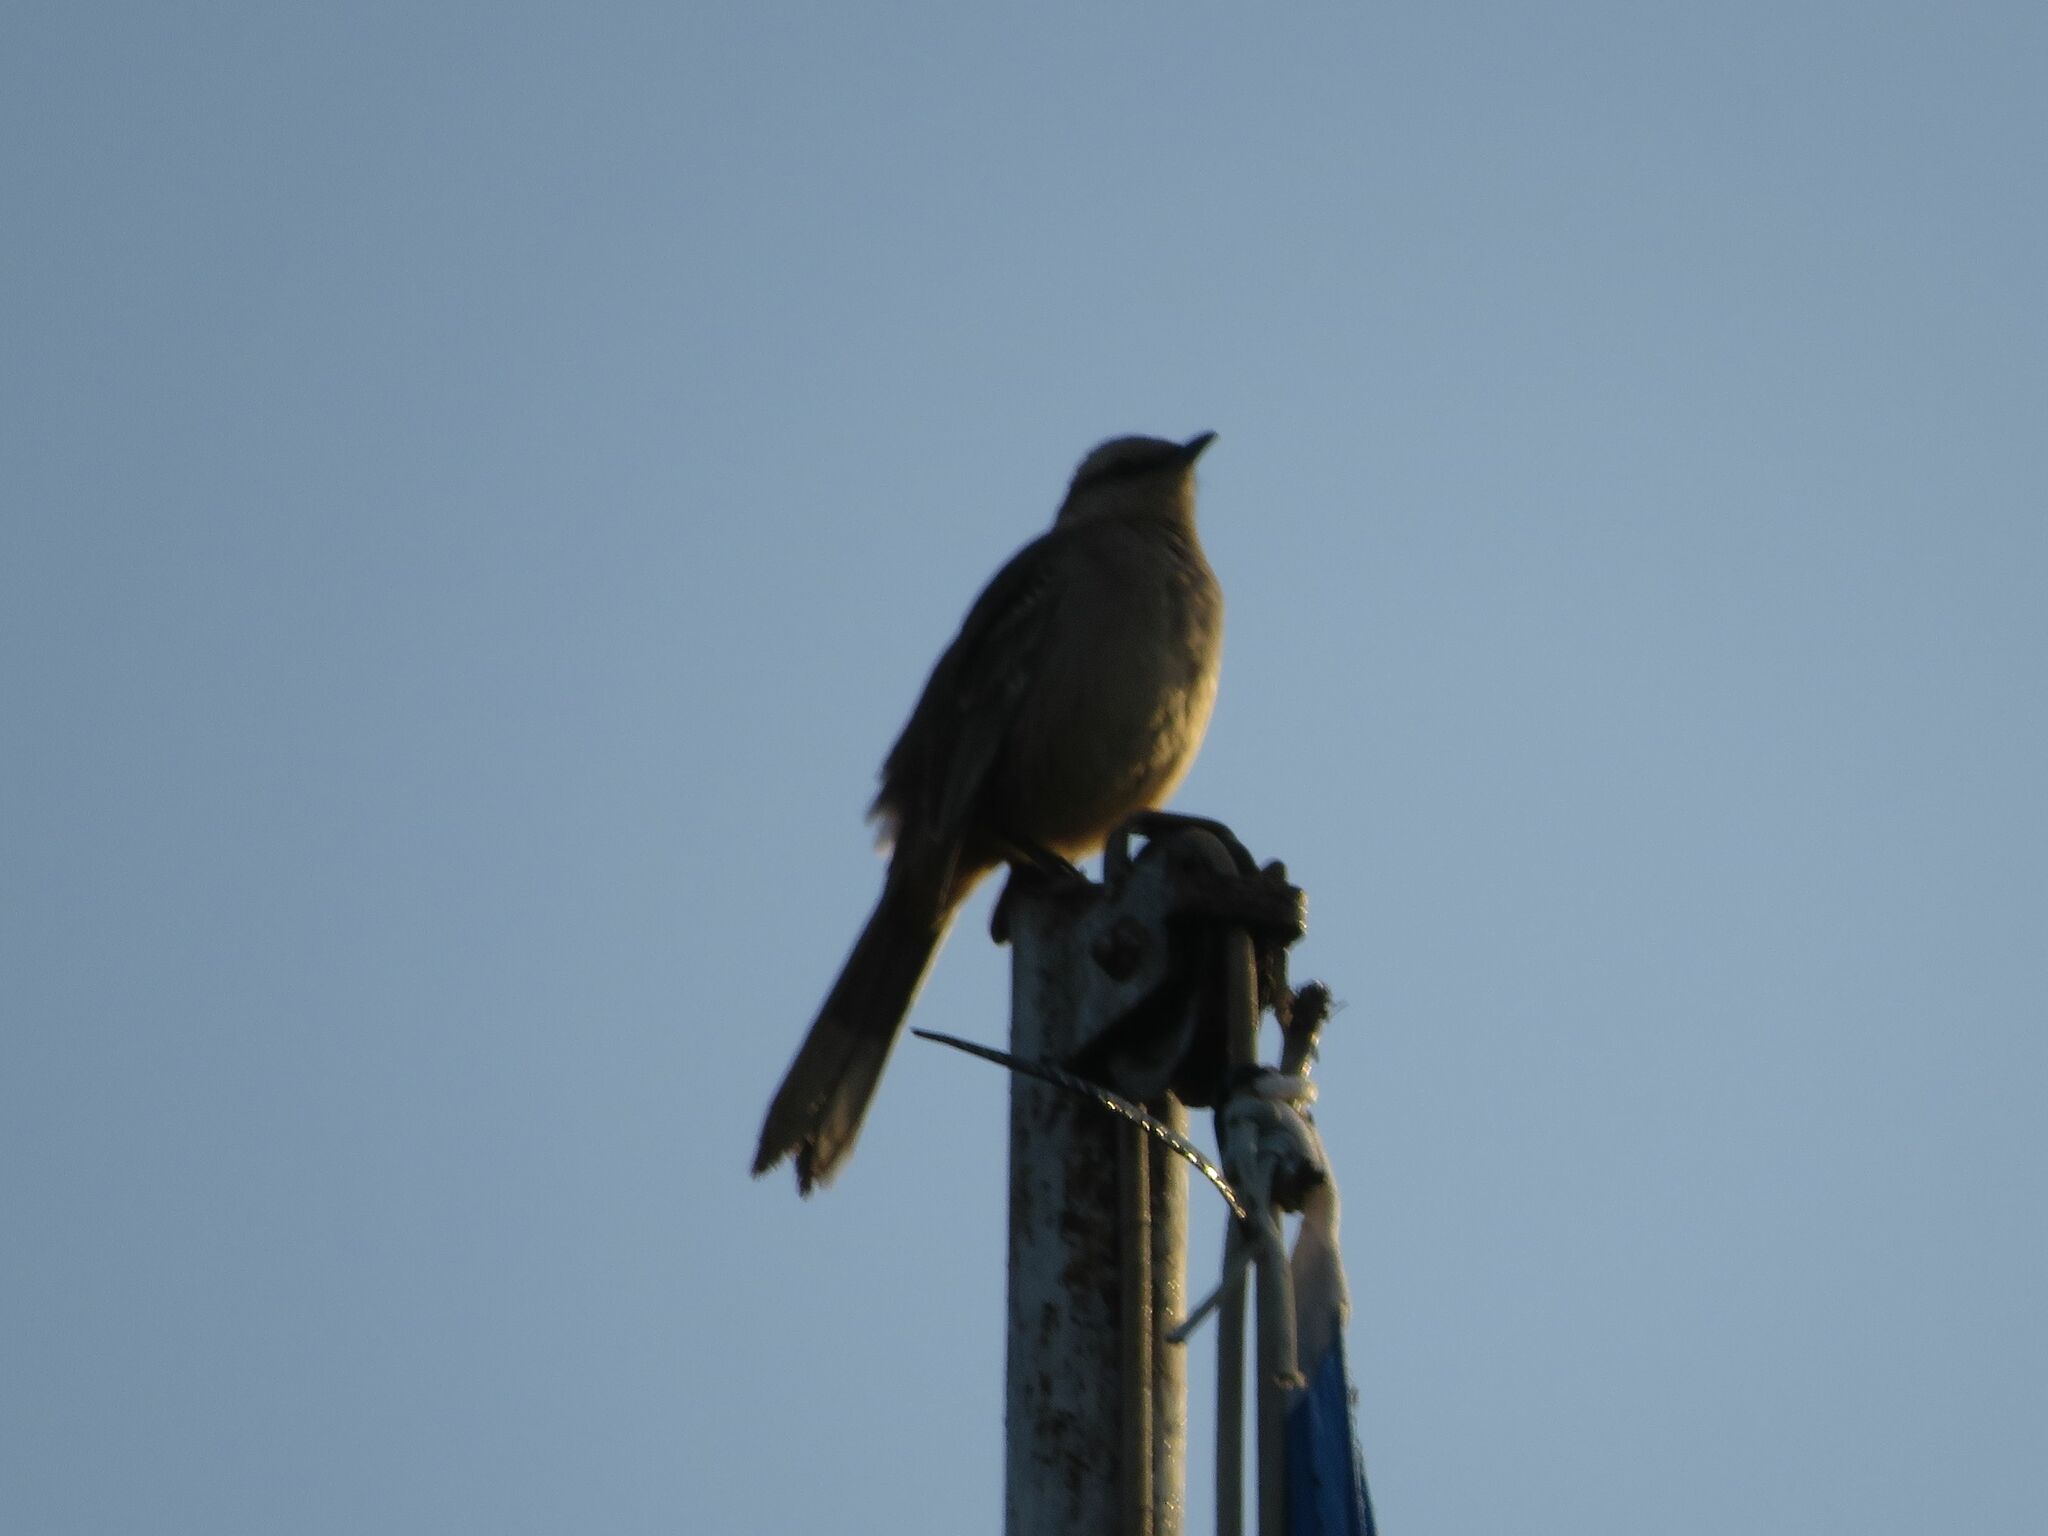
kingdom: Animalia
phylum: Chordata
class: Aves
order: Passeriformes
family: Mimidae
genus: Mimus
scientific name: Mimus saturninus
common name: Chalk-browed mockingbird
